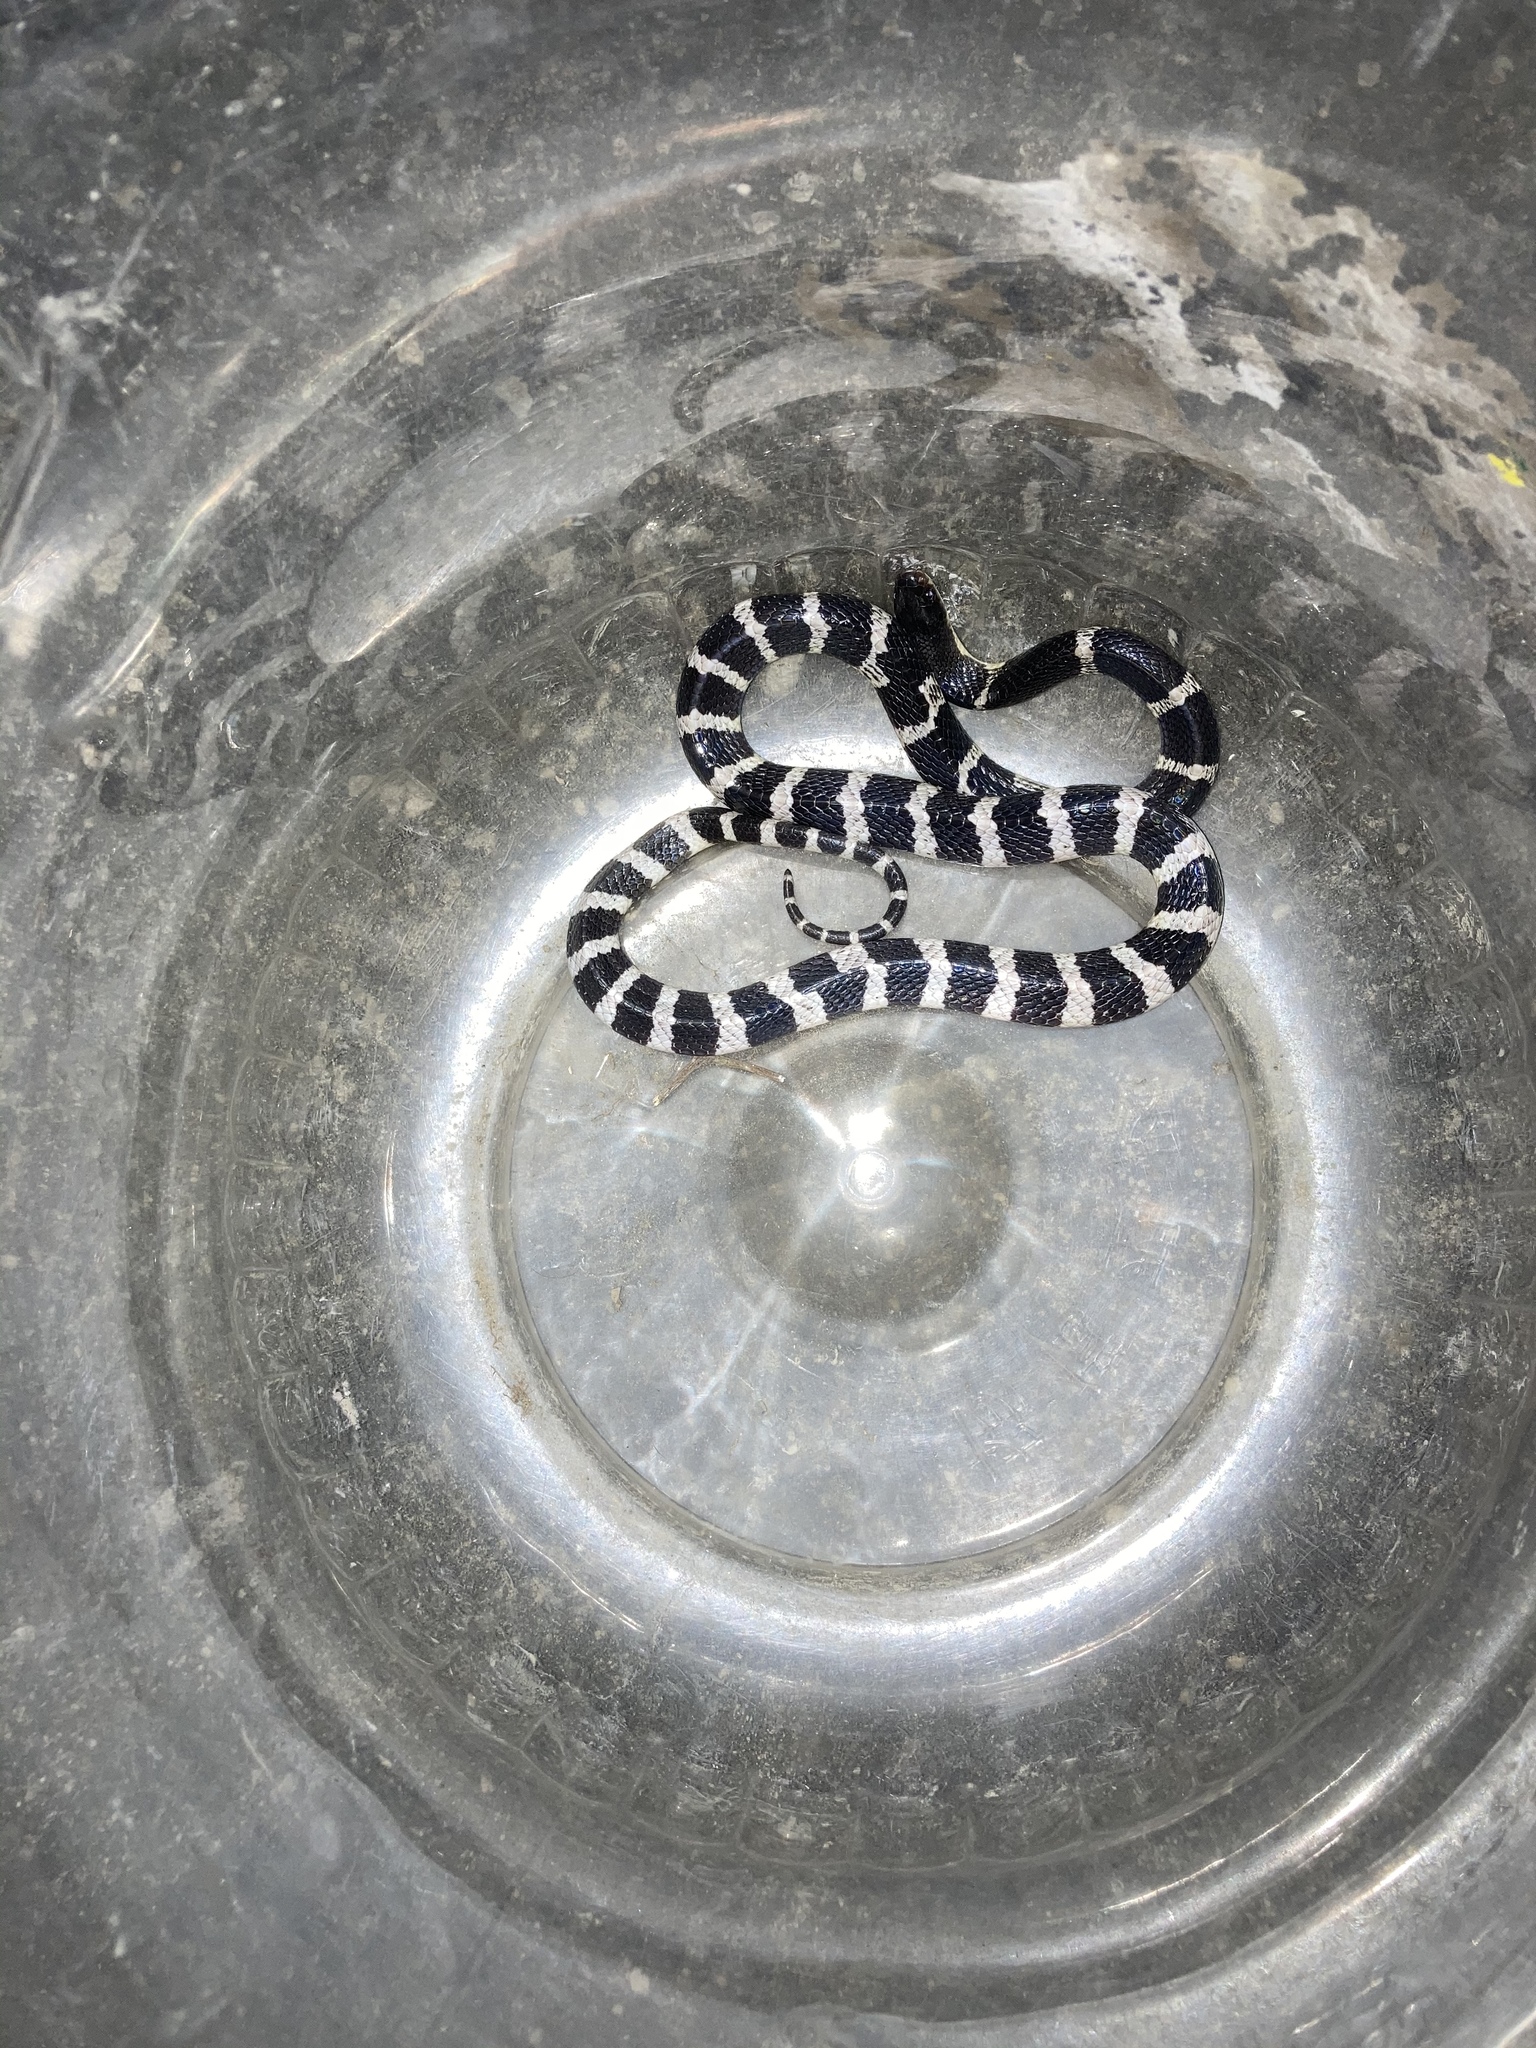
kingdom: Animalia
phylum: Chordata
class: Squamata
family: Elapidae
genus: Bungarus
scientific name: Bungarus multicinctus
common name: Many-banded krait
